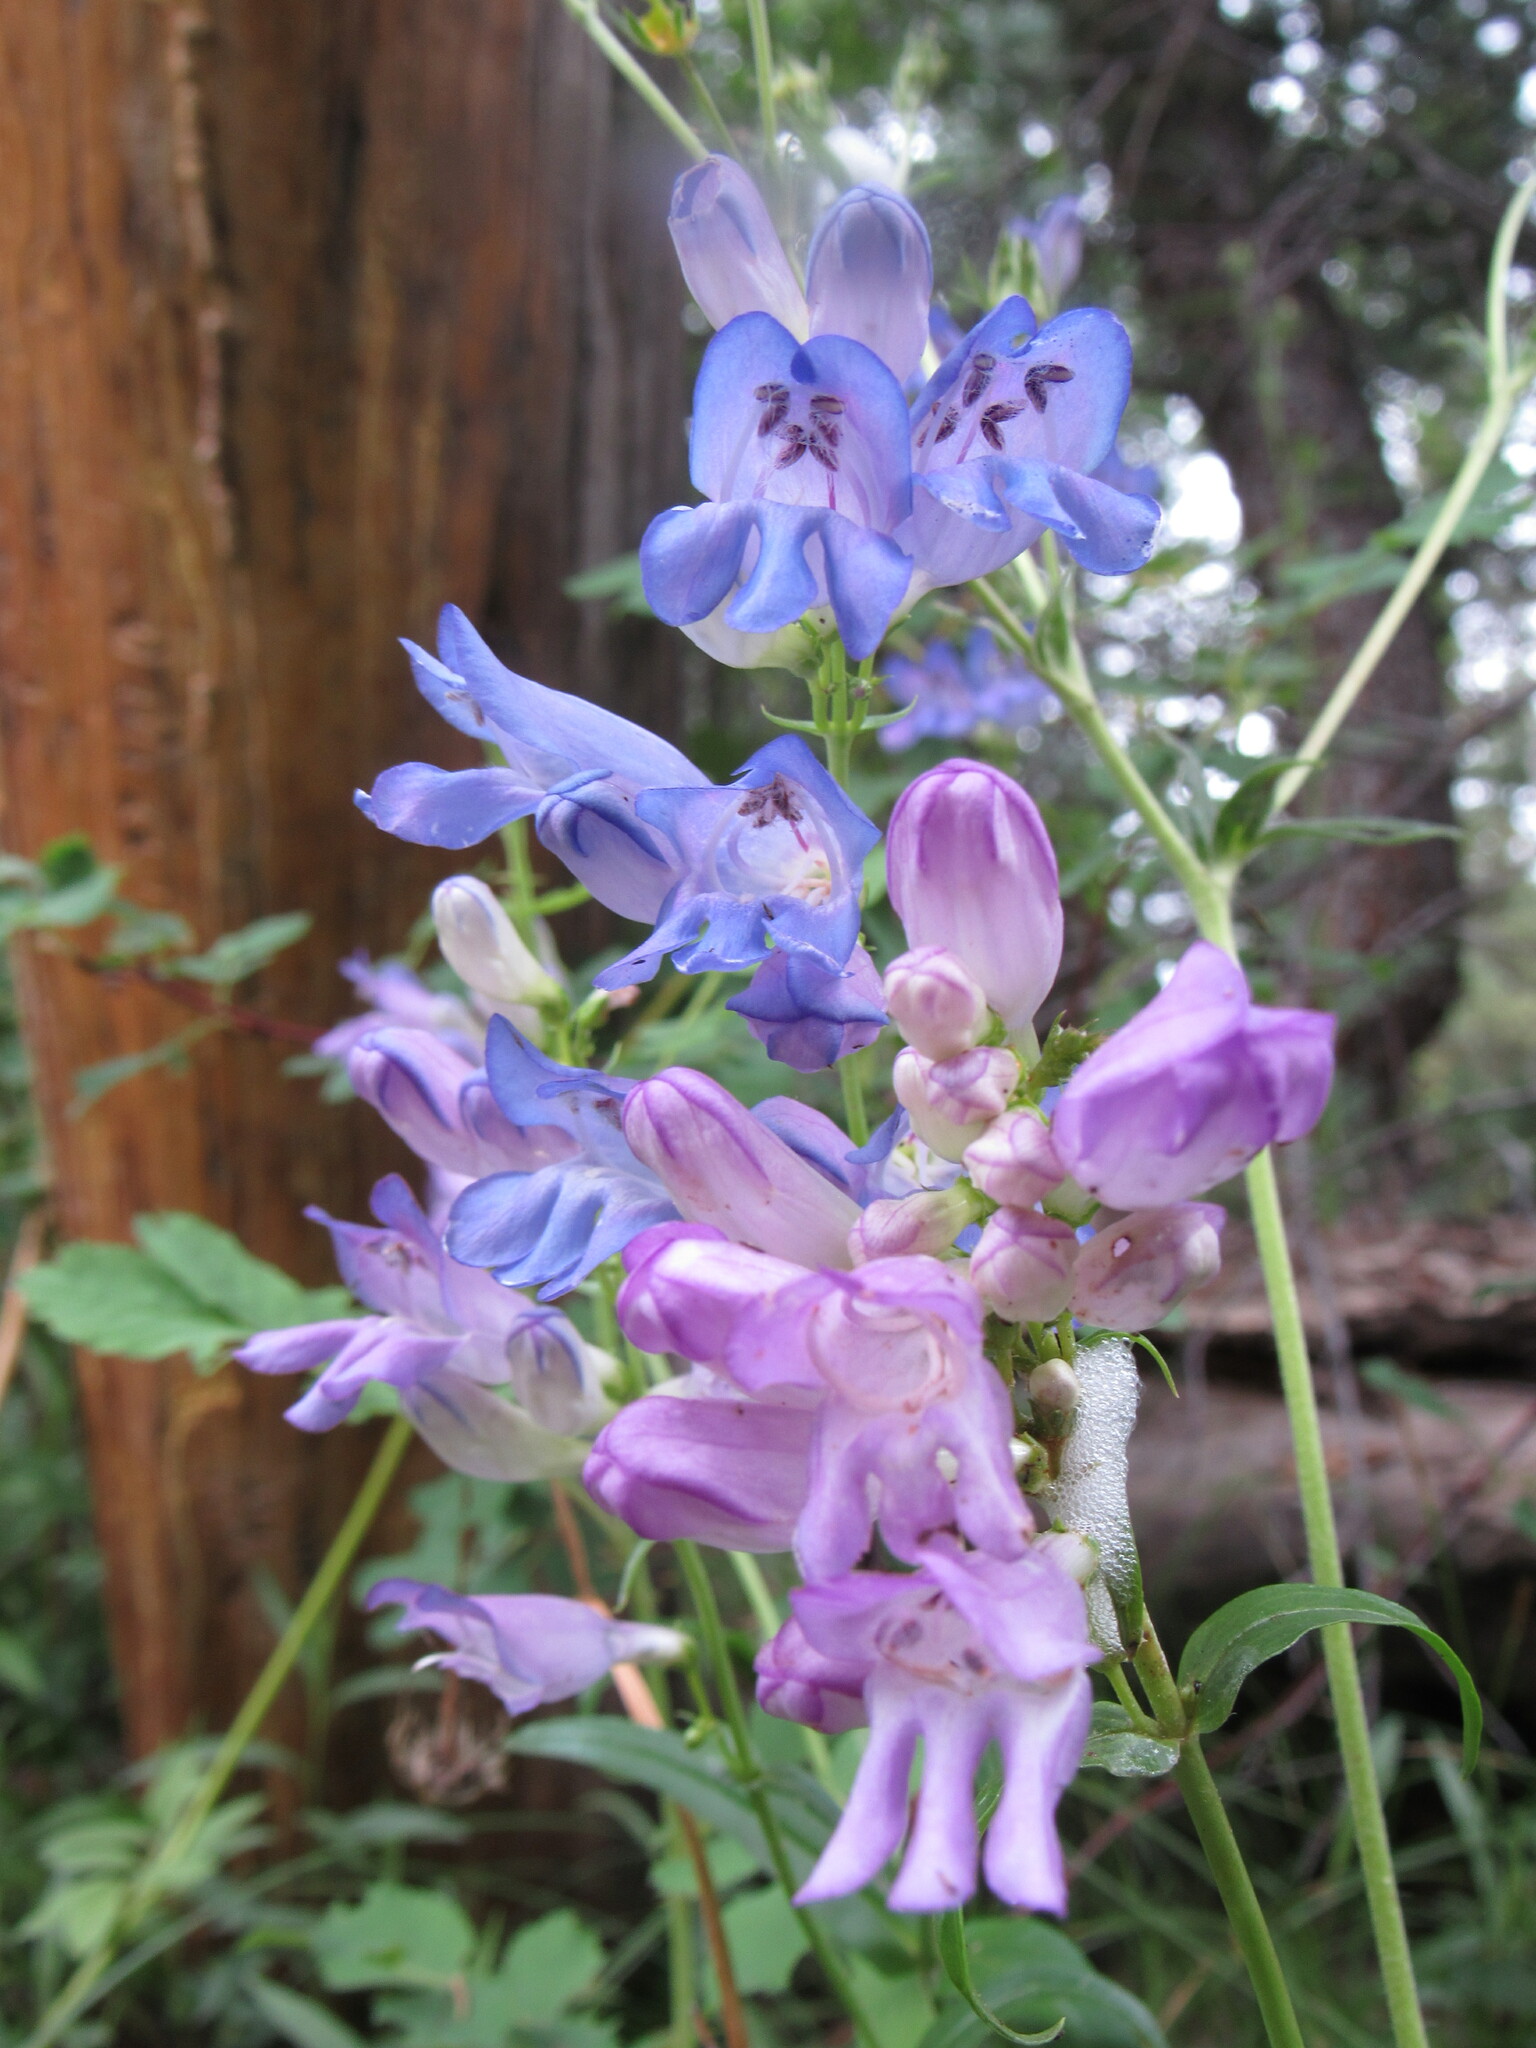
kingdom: Plantae
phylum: Tracheophyta
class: Magnoliopsida
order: Lamiales
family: Plantaginaceae
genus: Penstemon
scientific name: Penstemon strictus
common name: Rocky mountain penstemon
